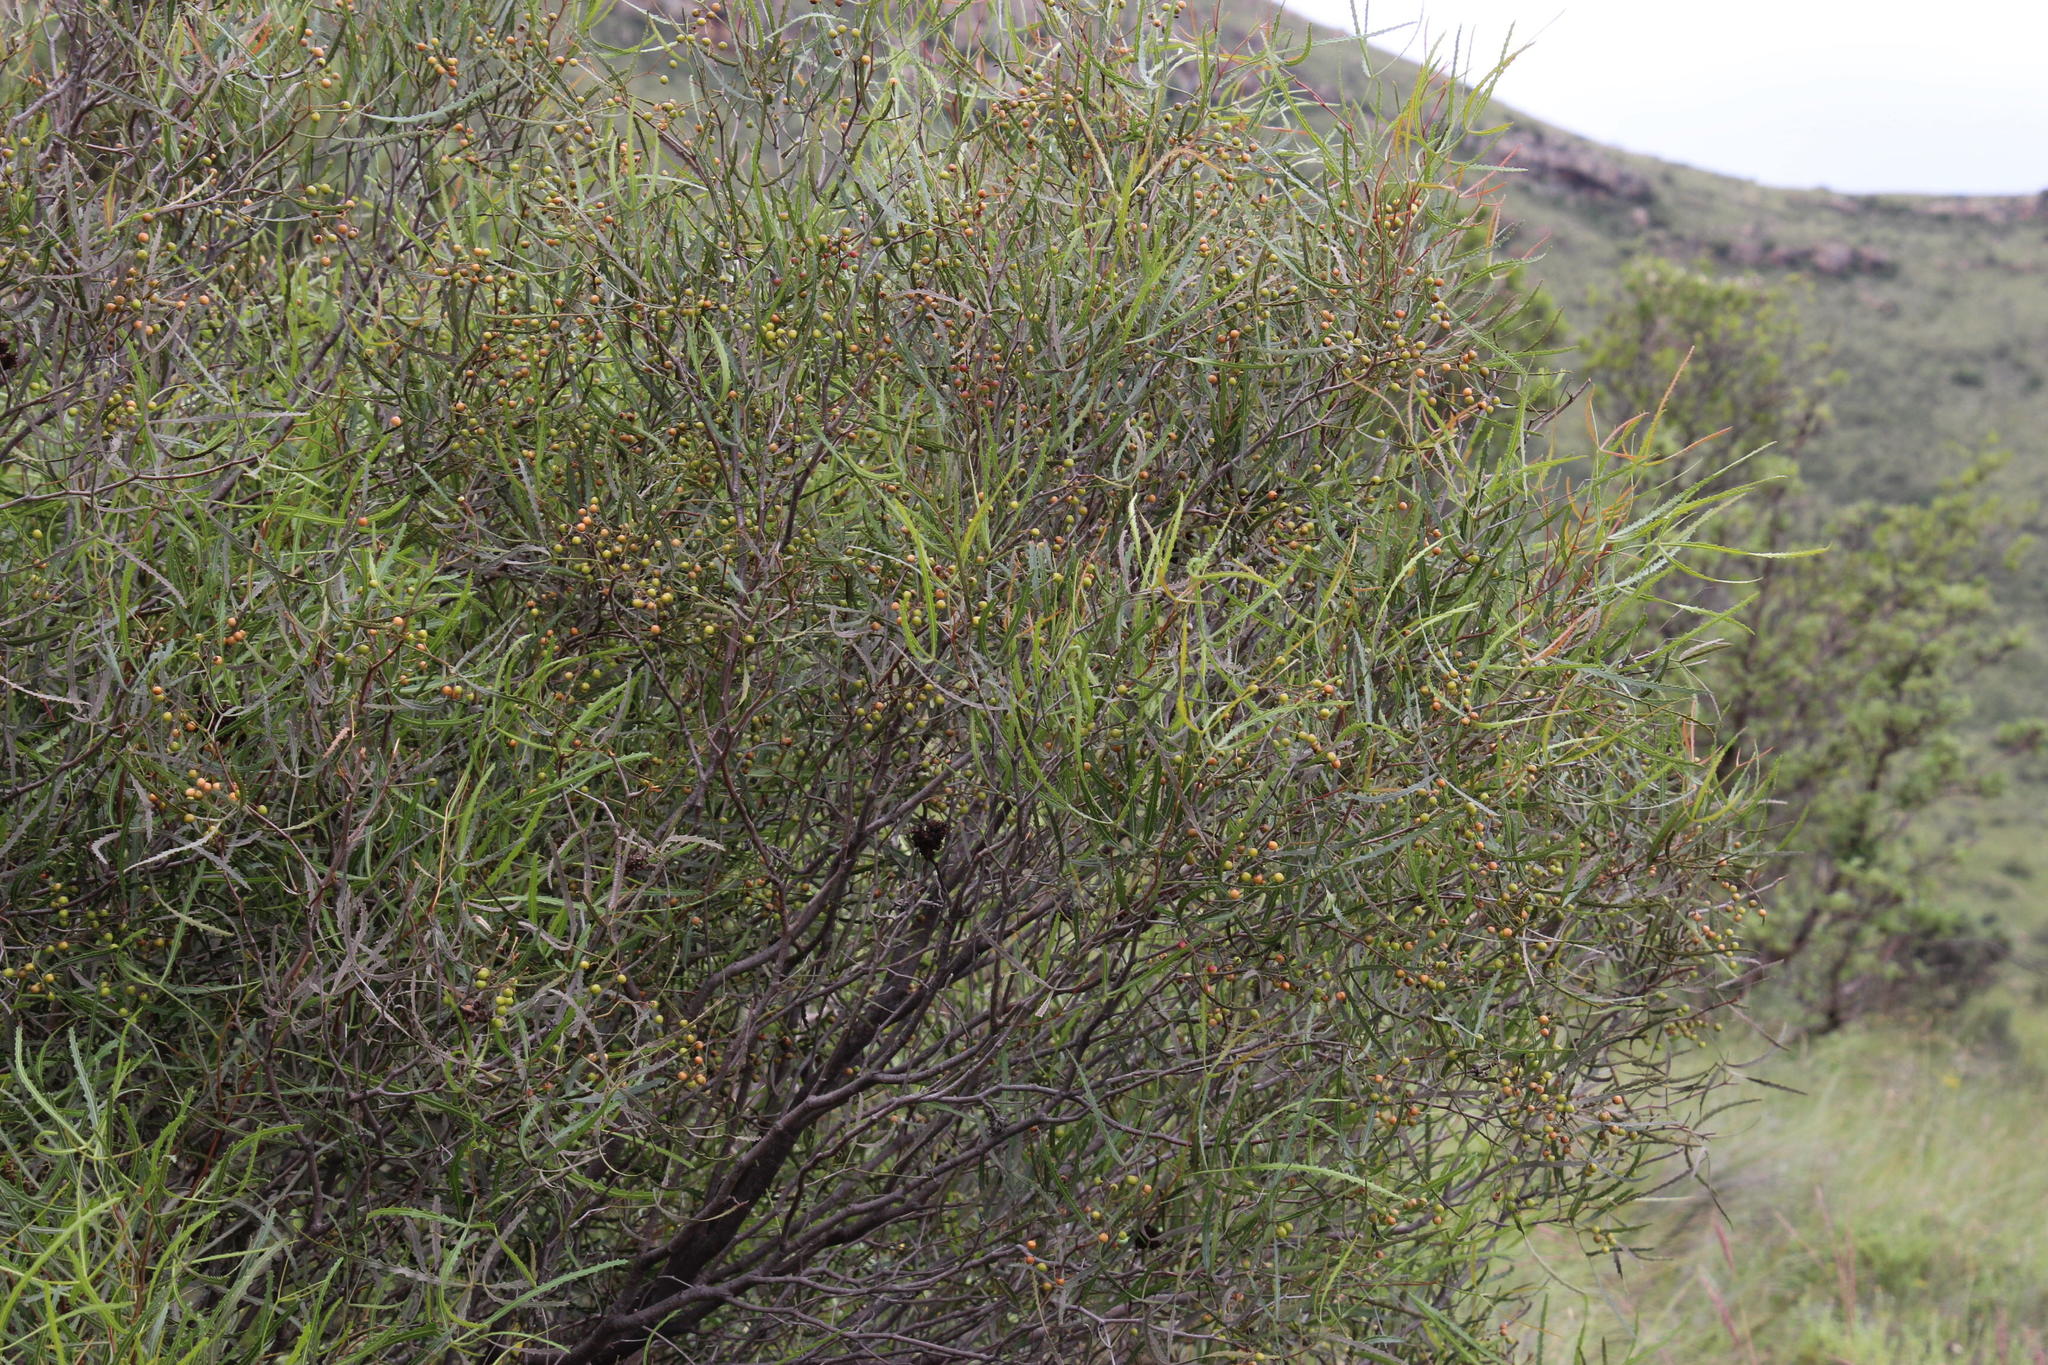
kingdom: Plantae
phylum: Tracheophyta
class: Magnoliopsida
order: Sapindales
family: Anacardiaceae
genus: Searsia
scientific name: Searsia erosa
